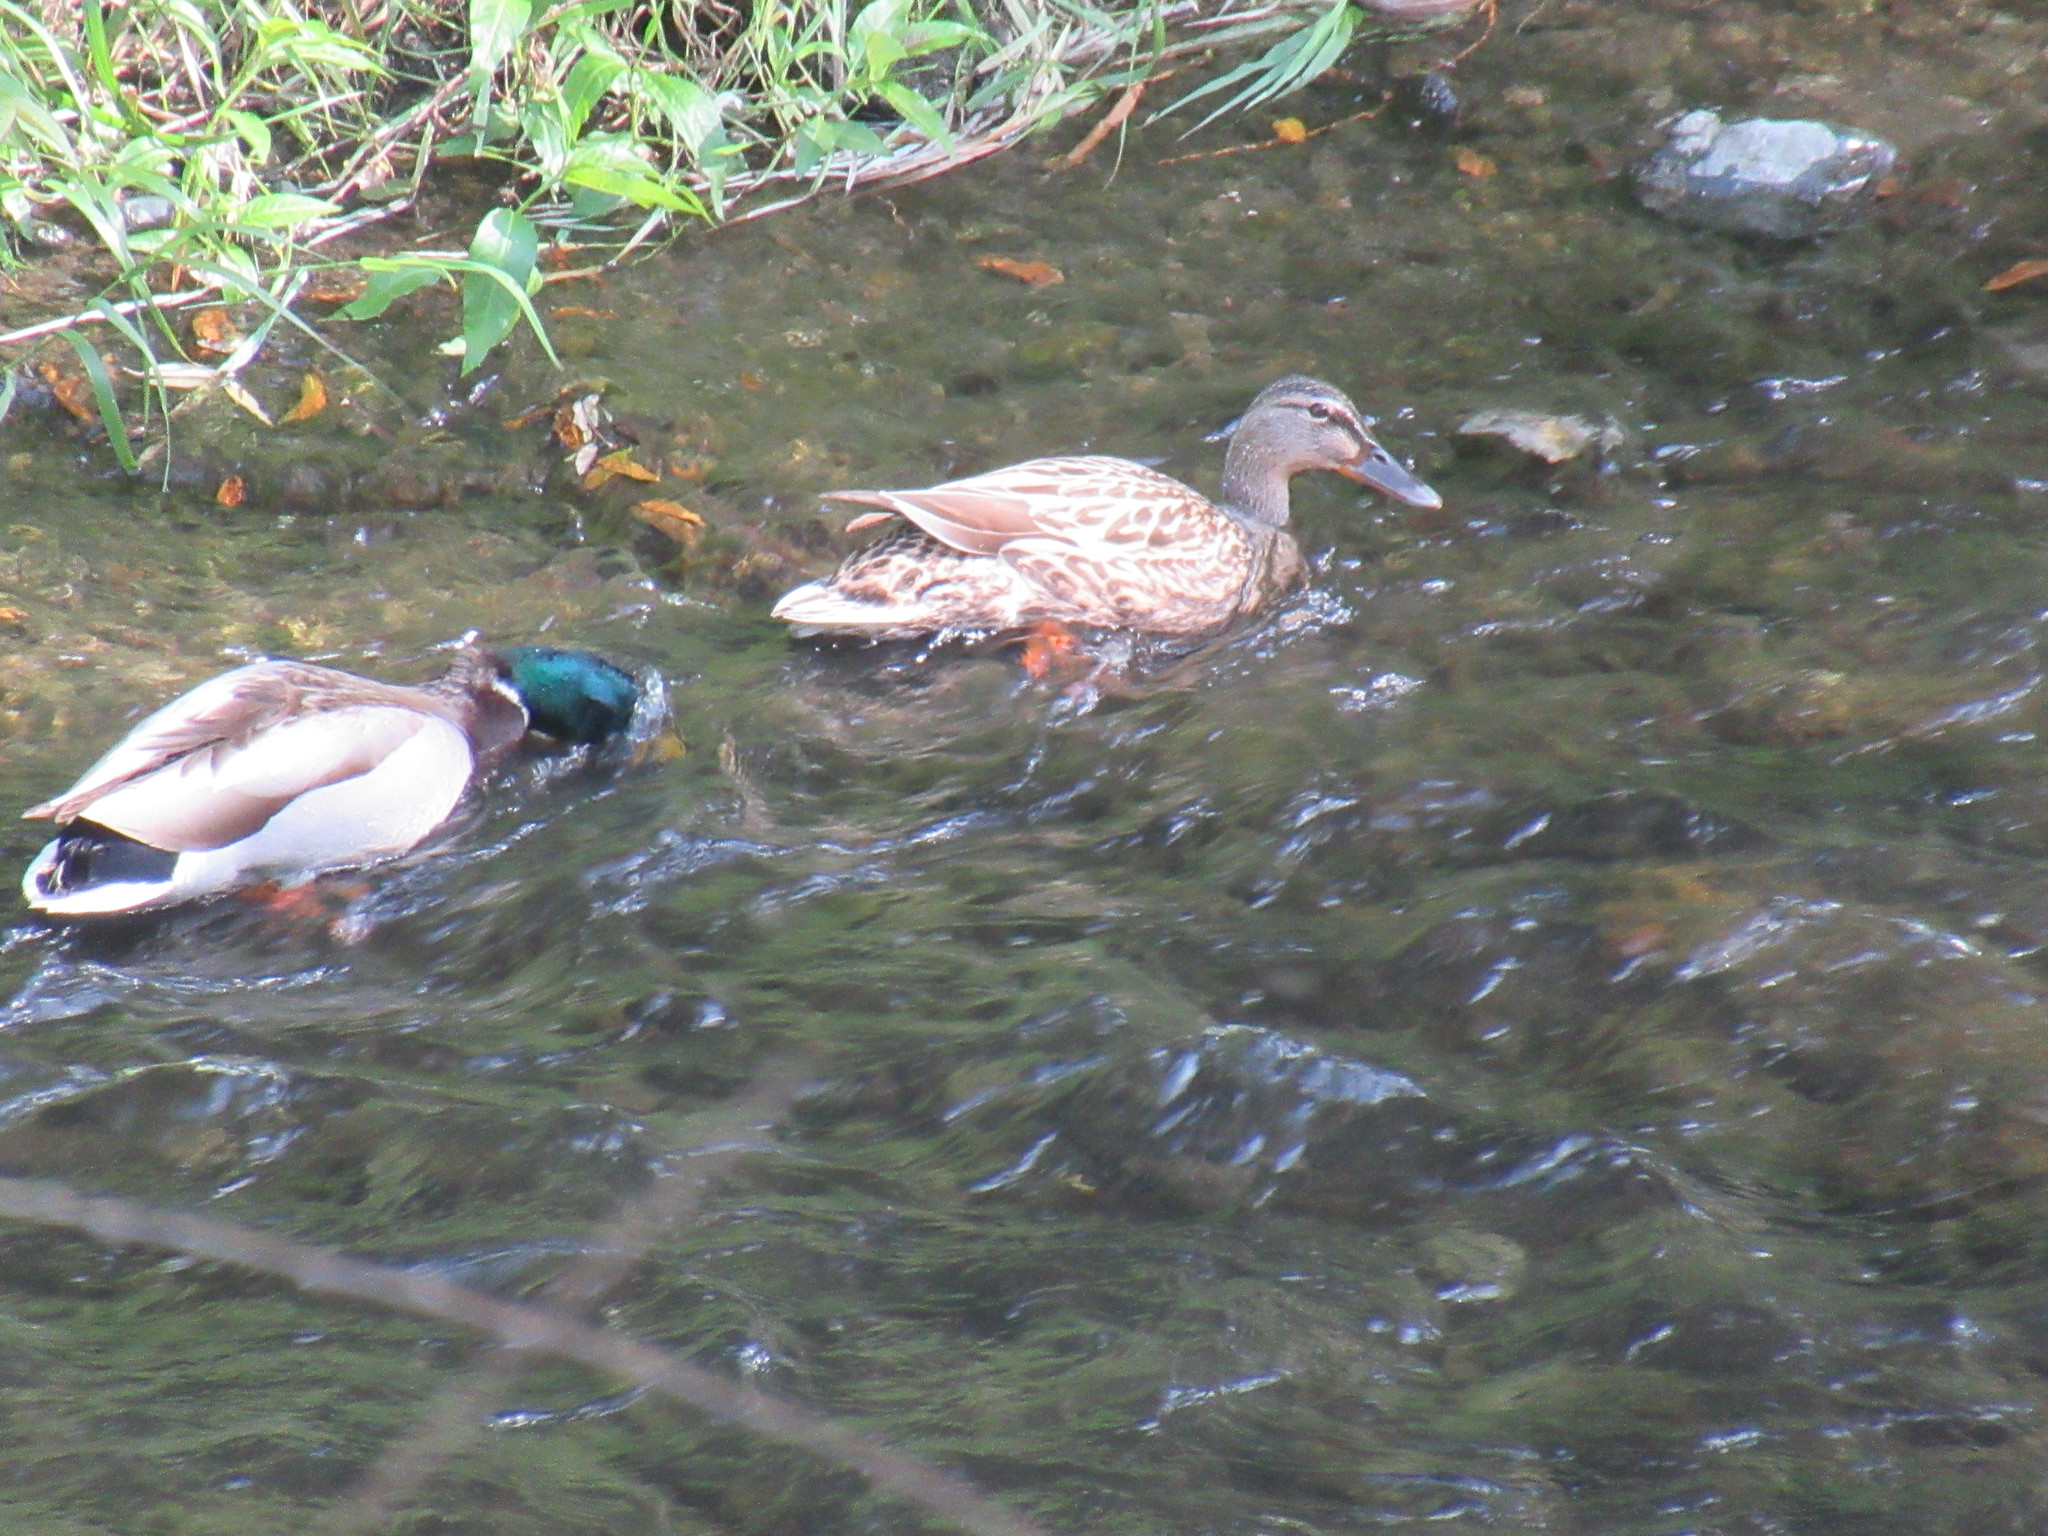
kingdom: Animalia
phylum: Chordata
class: Aves
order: Anseriformes
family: Anatidae
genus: Anas
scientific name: Anas platyrhynchos
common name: Mallard
